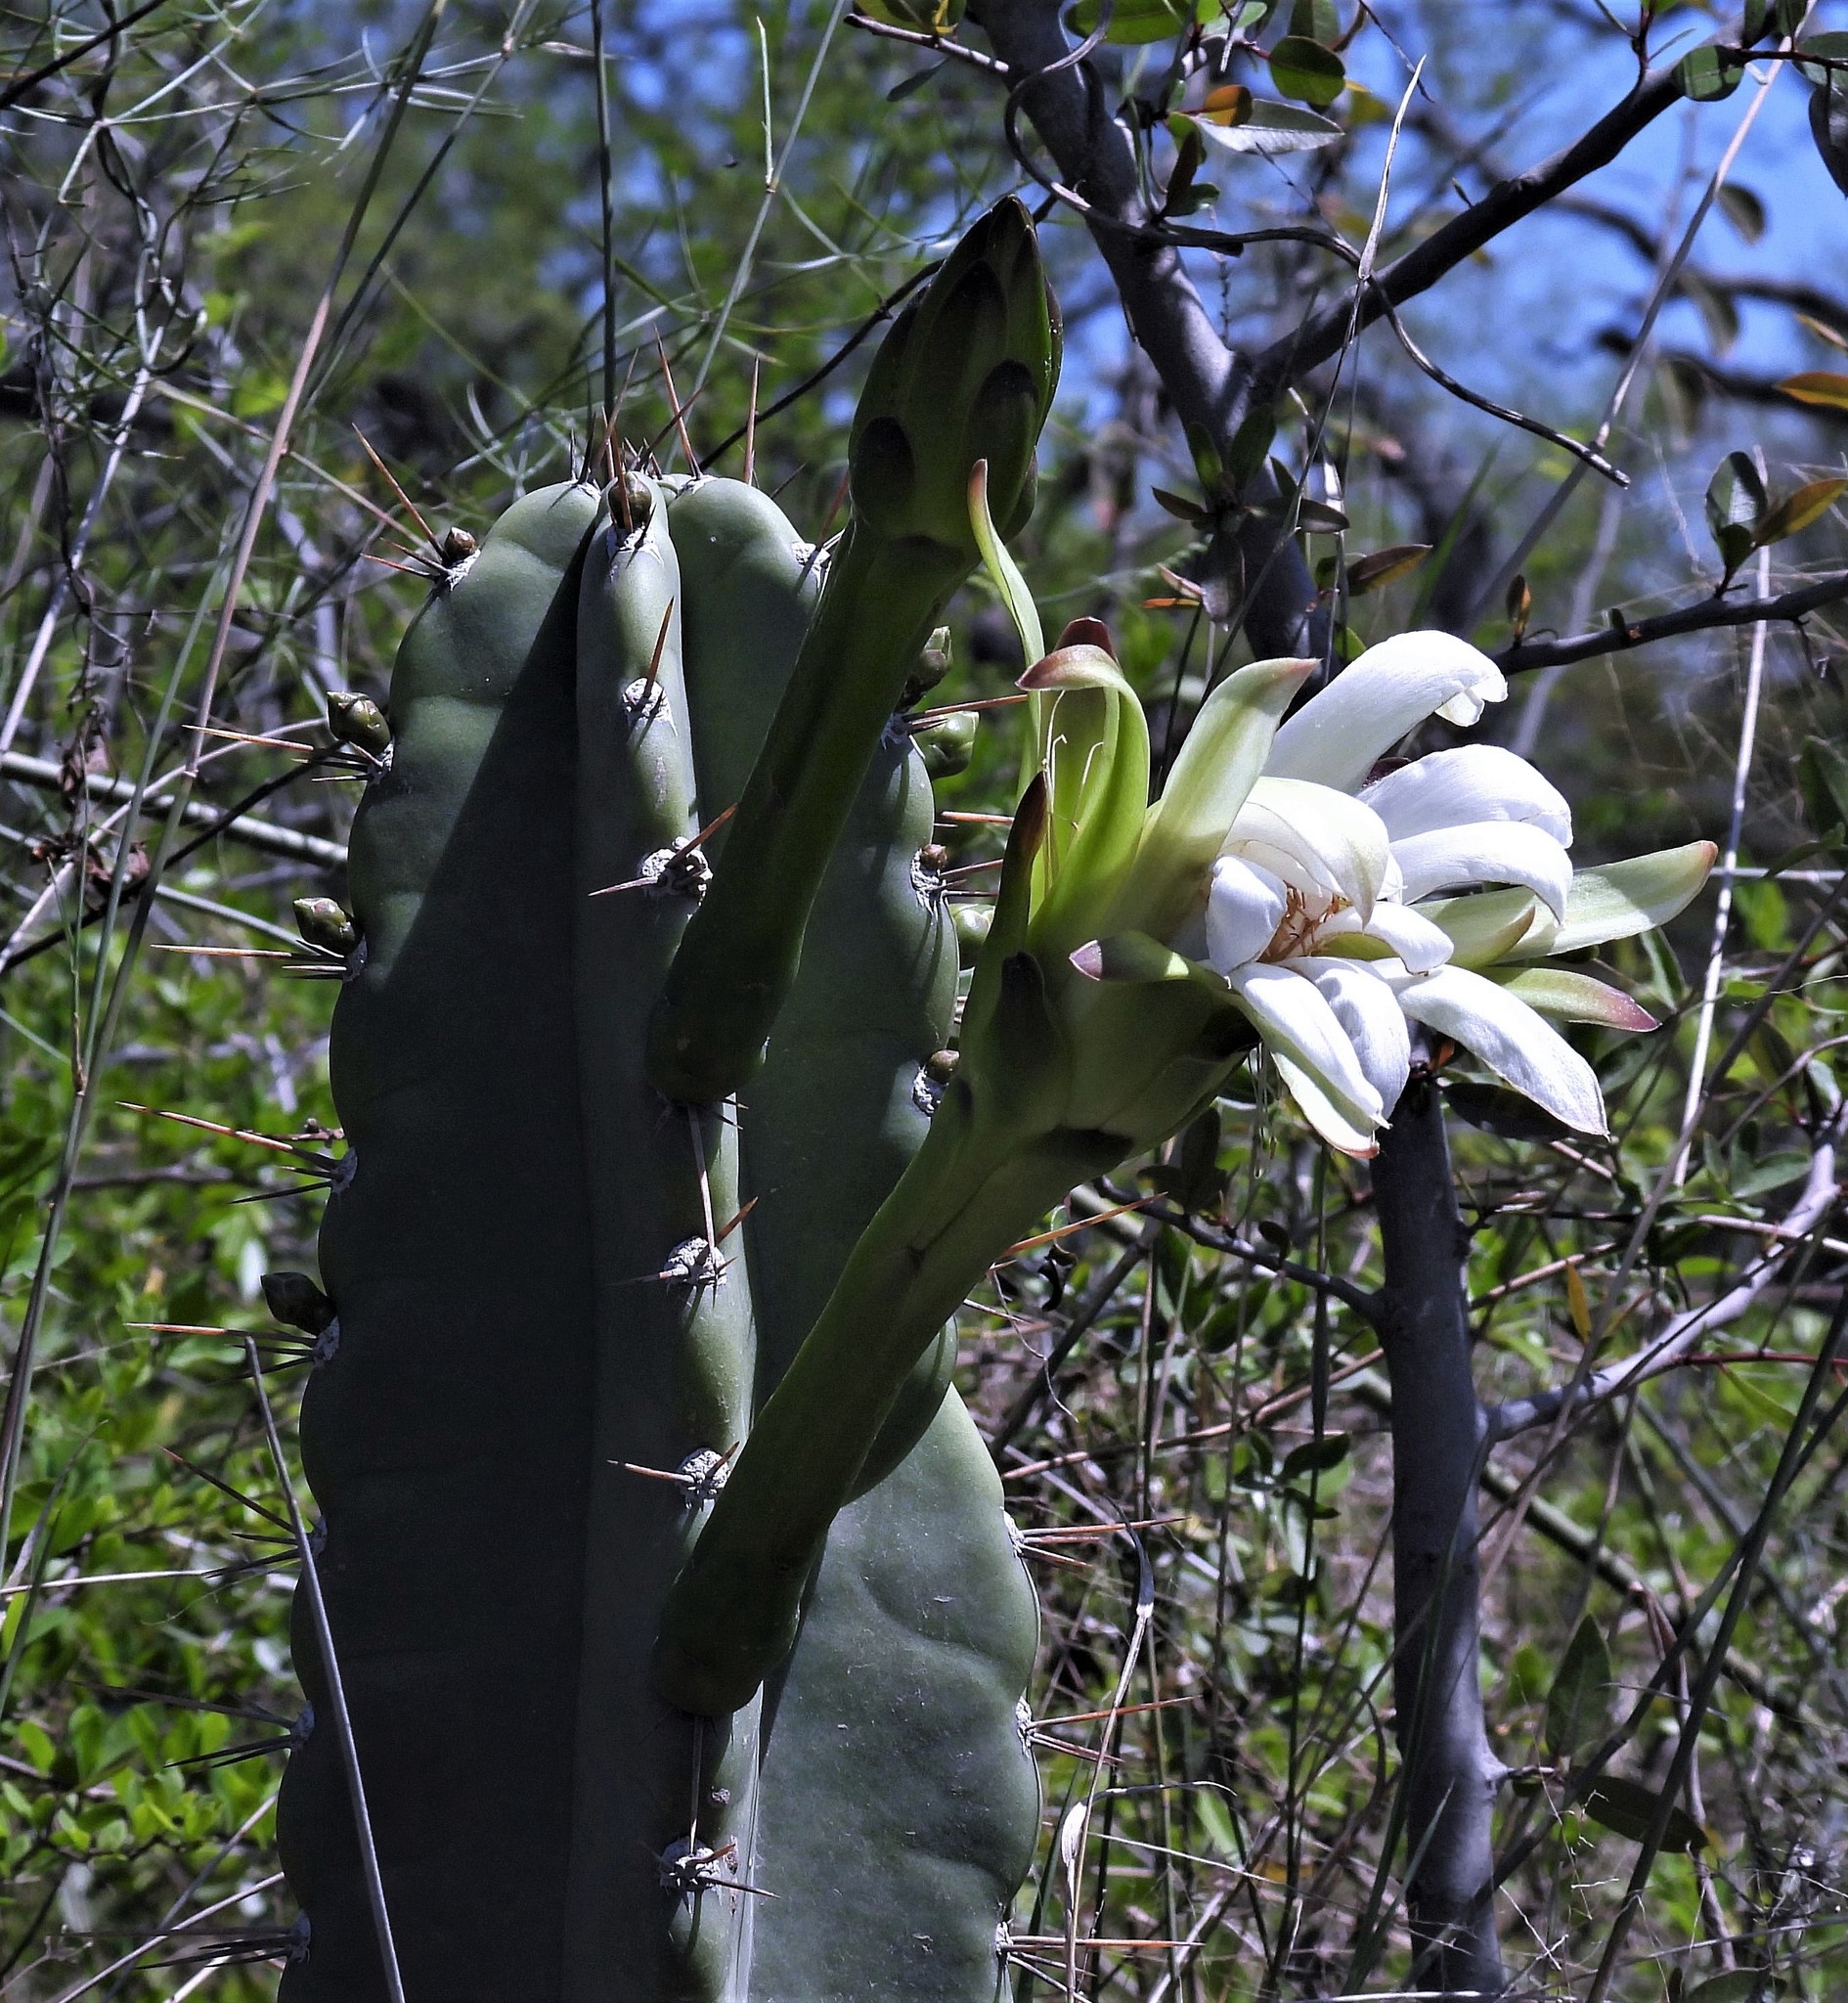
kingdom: Plantae
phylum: Tracheophyta
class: Magnoliopsida
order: Caryophyllales
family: Cactaceae
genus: Cereus
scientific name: Cereus stenogonus
